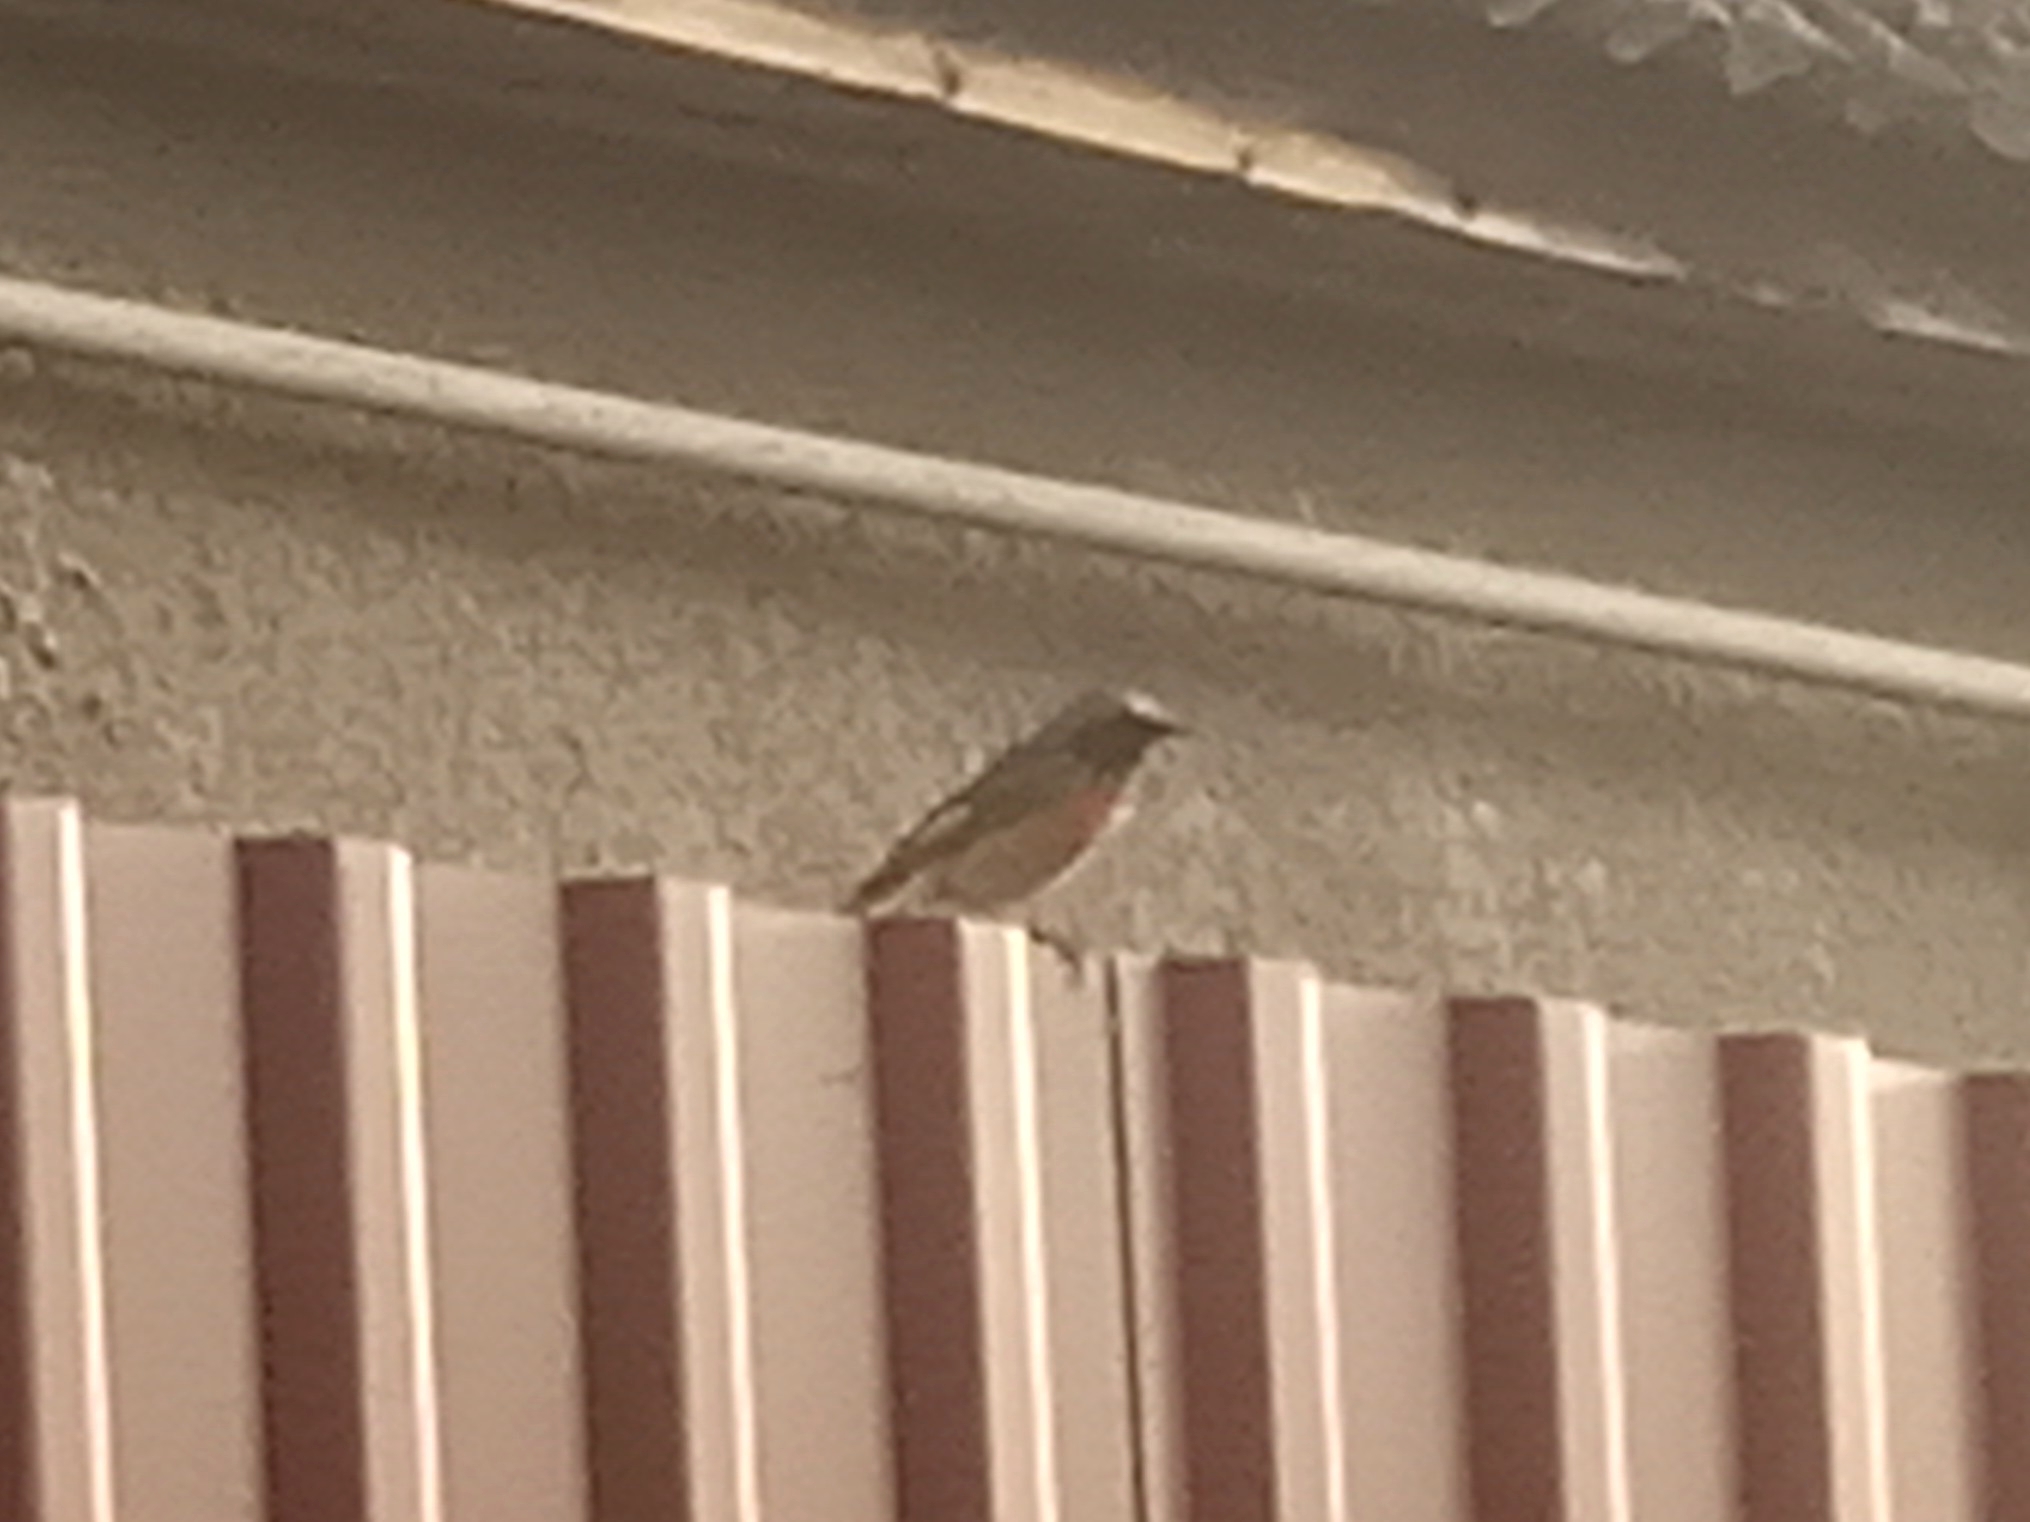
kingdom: Animalia
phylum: Chordata
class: Aves
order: Passeriformes
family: Muscicapidae
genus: Phoenicurus
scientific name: Phoenicurus phoenicurus
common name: Common redstart
